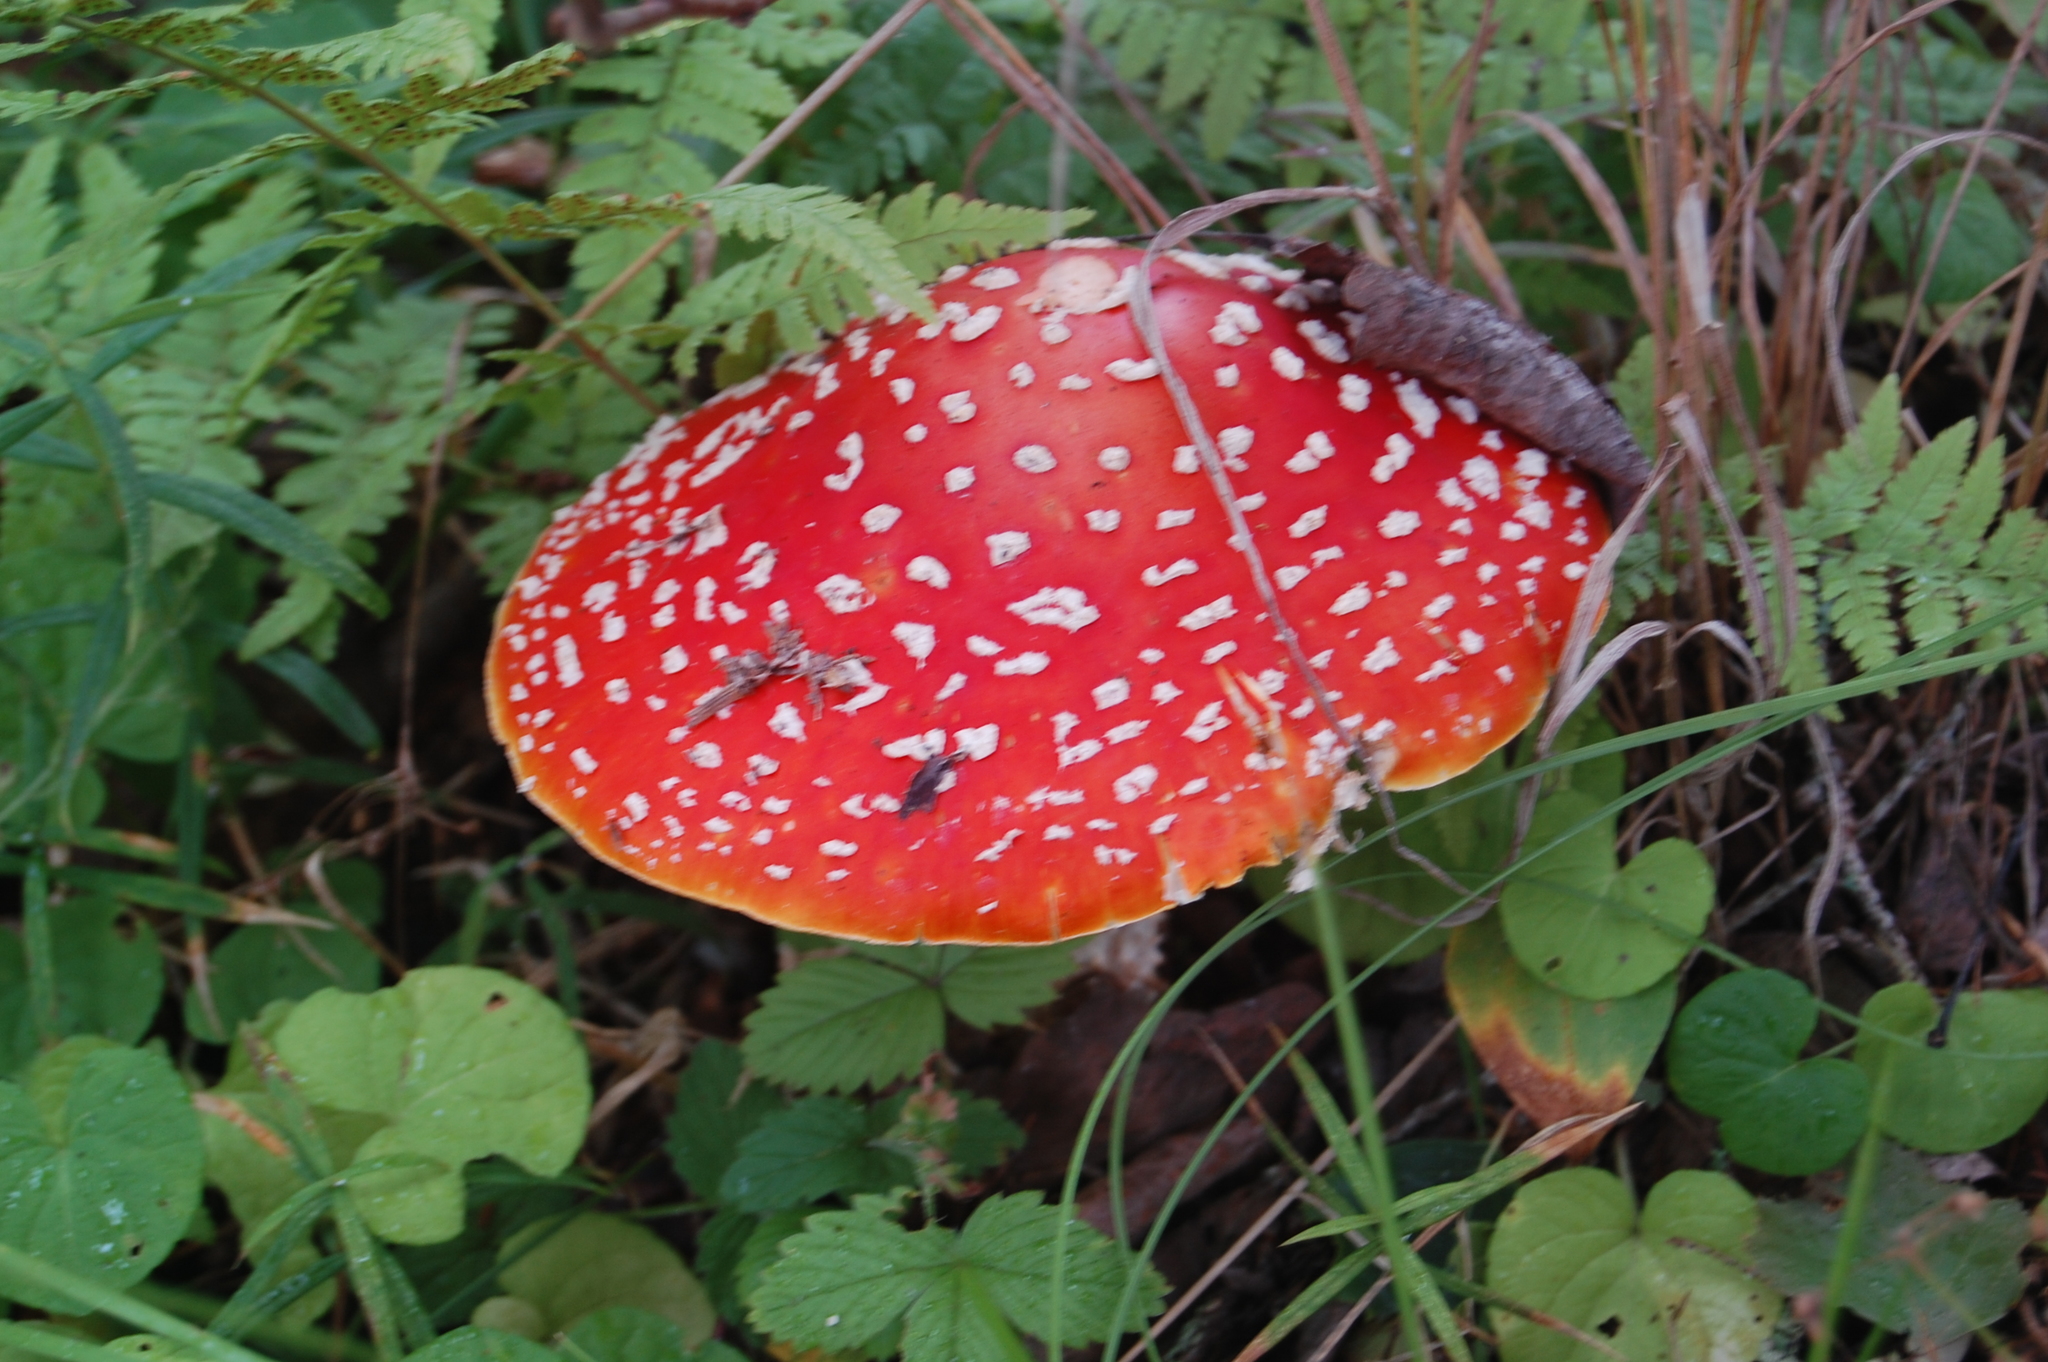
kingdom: Fungi
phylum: Basidiomycota
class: Agaricomycetes
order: Agaricales
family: Amanitaceae
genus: Amanita
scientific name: Amanita muscaria
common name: Fly agaric
